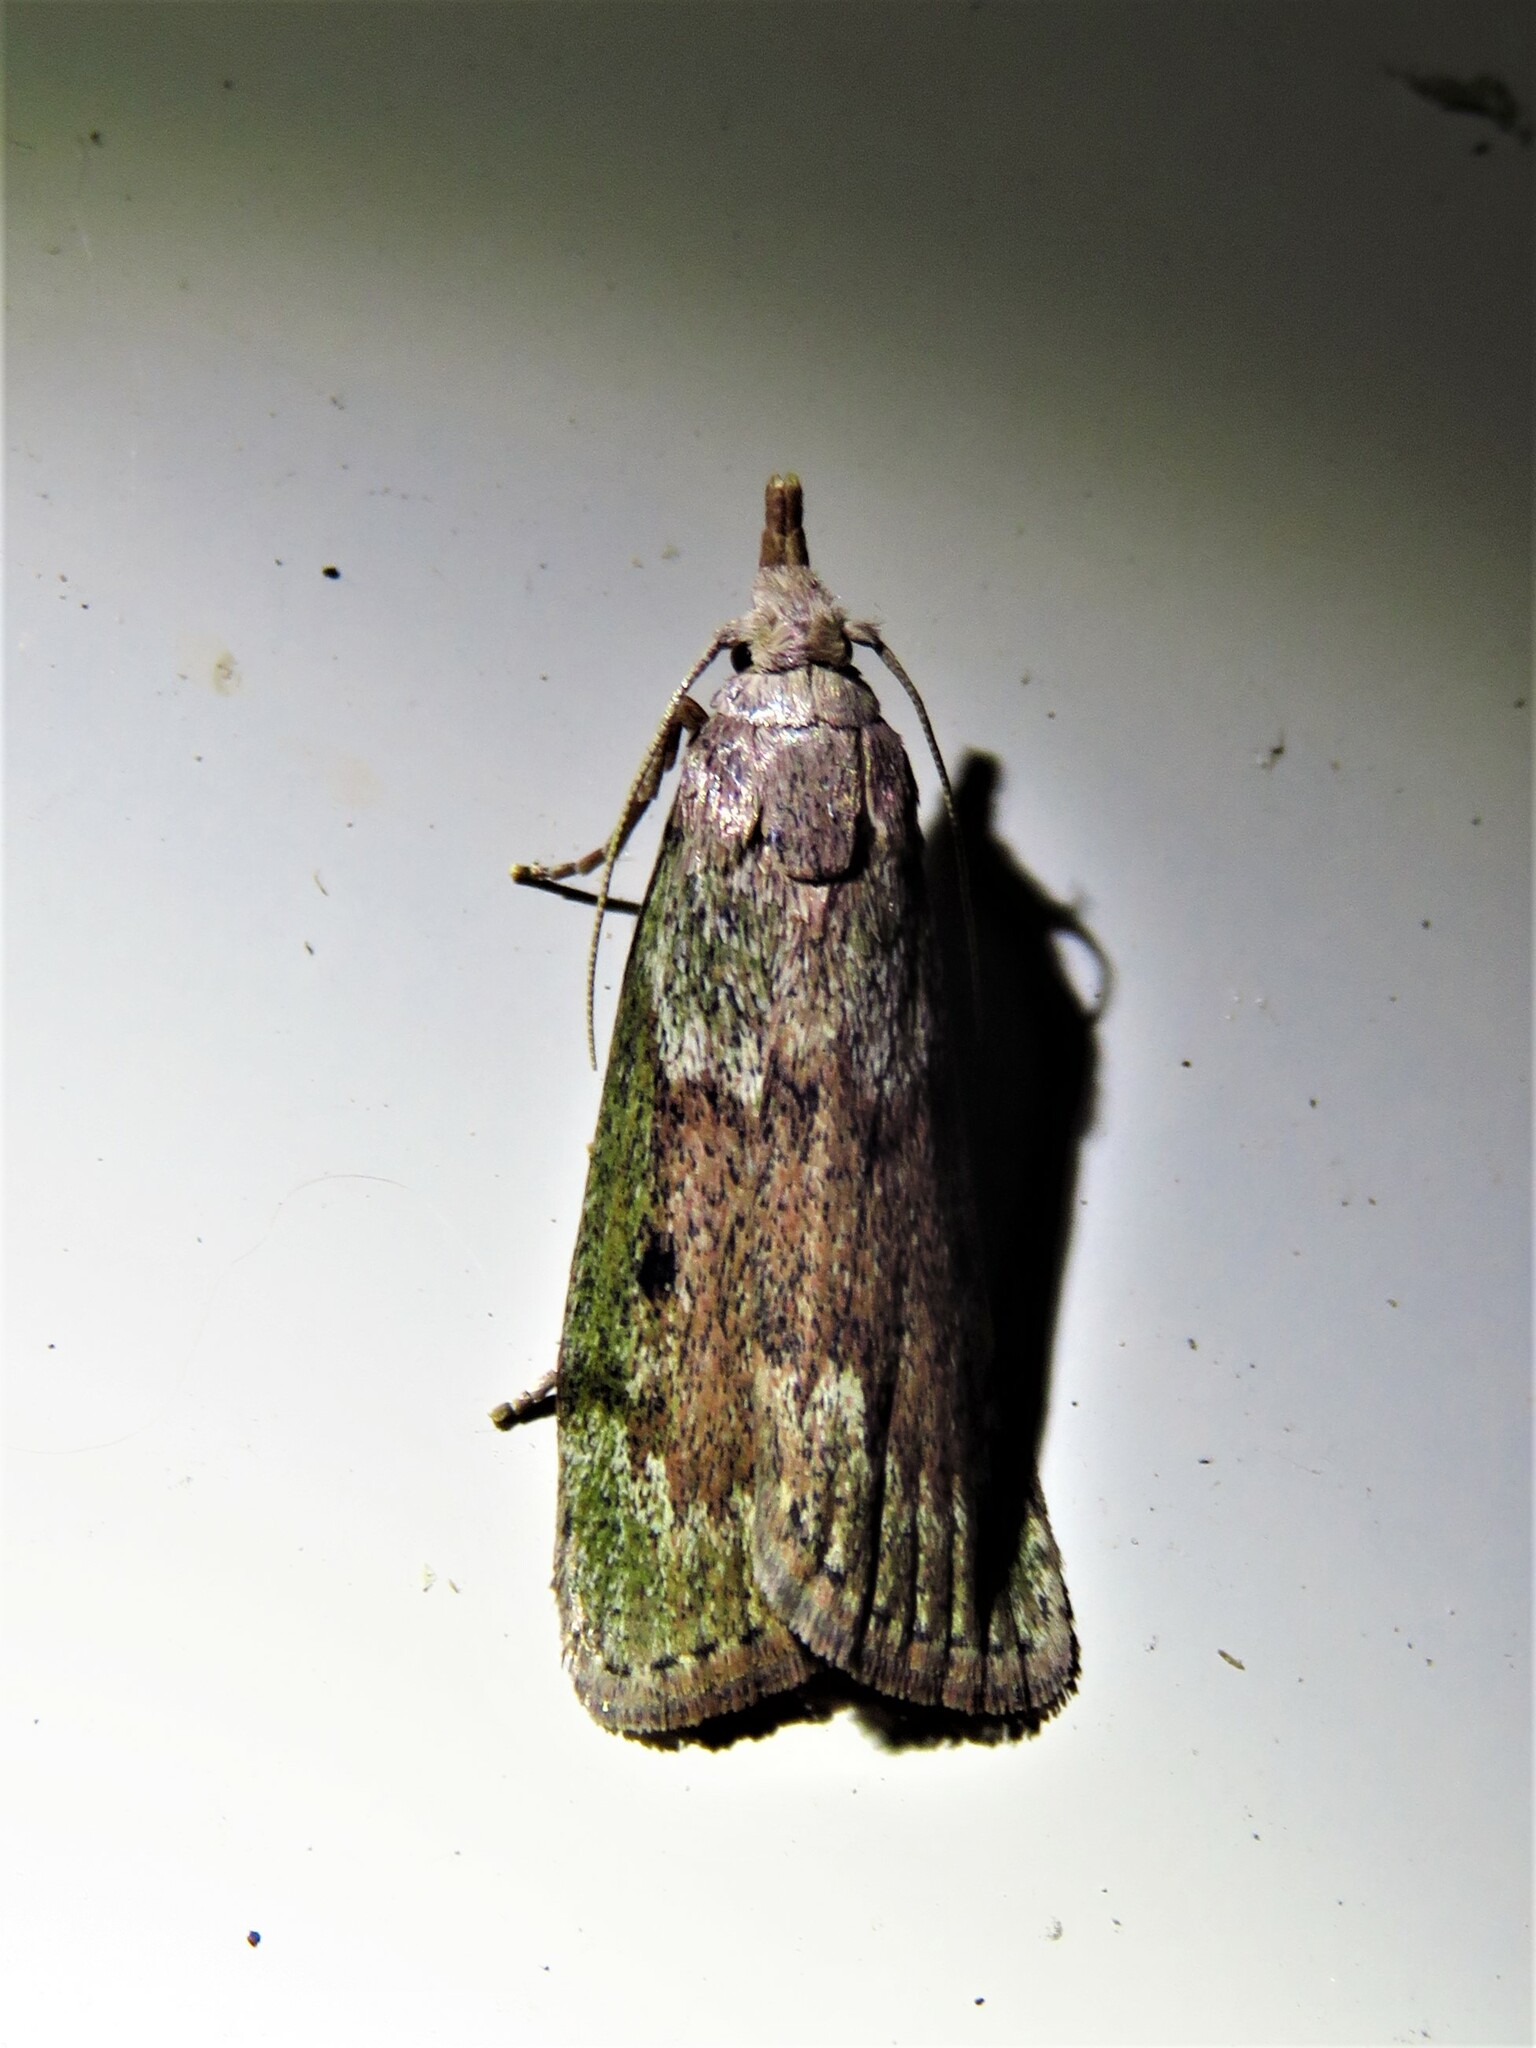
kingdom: Animalia
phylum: Arthropoda
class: Insecta
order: Lepidoptera
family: Pyralidae
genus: Aphomia
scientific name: Aphomia sociella
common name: Bee moth
